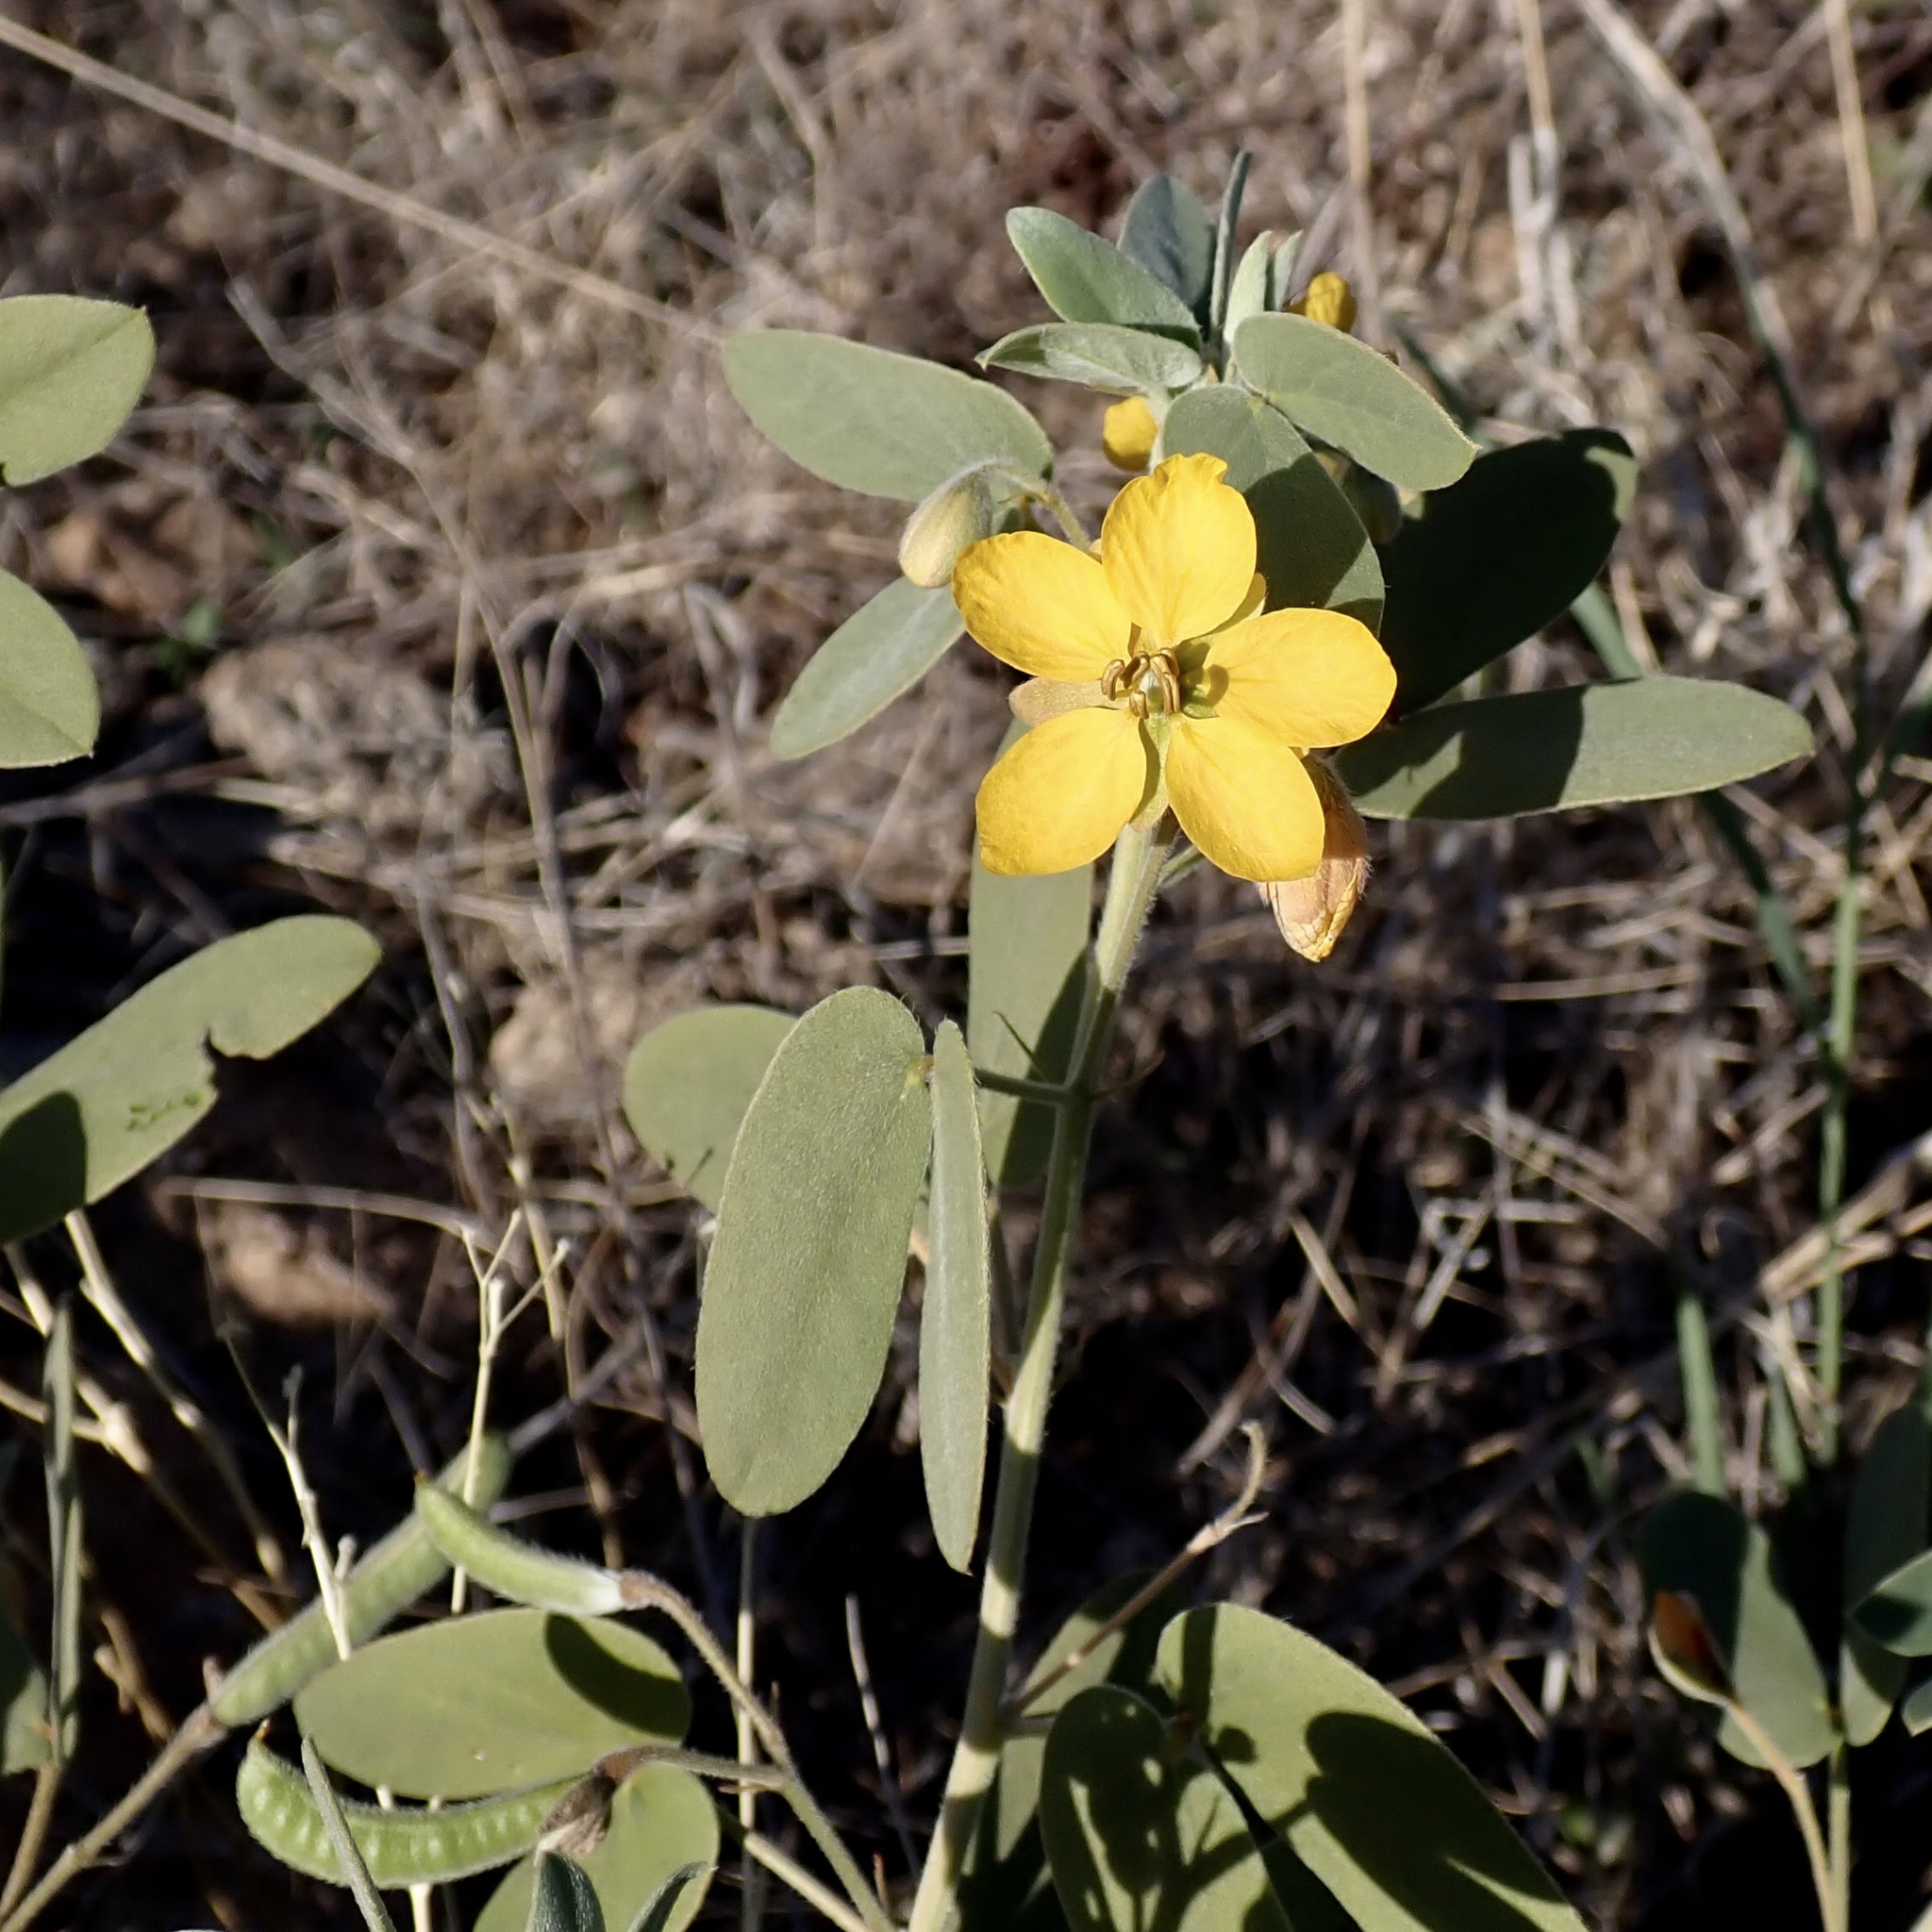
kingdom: Plantae
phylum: Tracheophyta
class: Magnoliopsida
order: Fabales
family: Fabaceae
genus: Senna
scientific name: Senna bauhinioides
